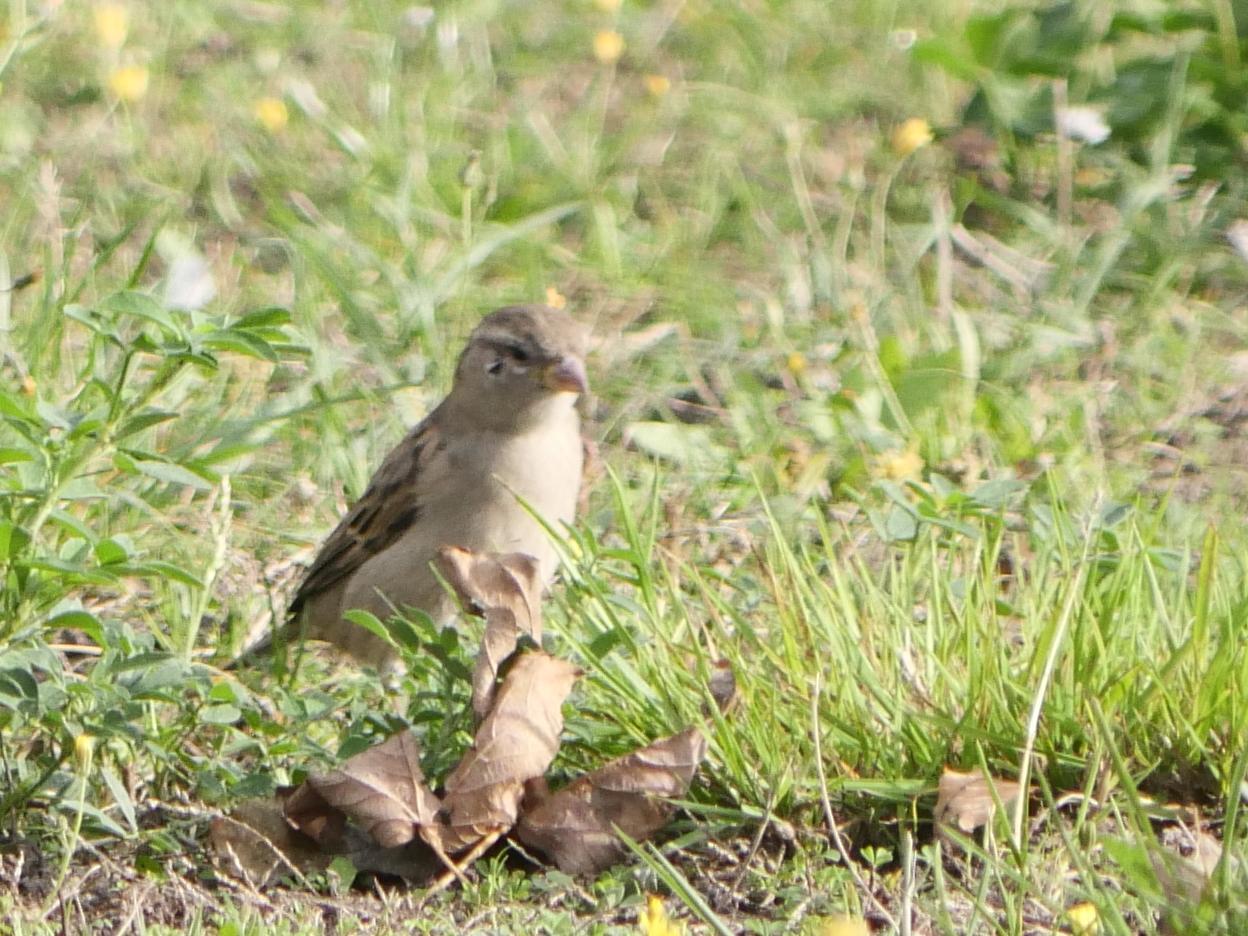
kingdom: Animalia
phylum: Chordata
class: Aves
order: Passeriformes
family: Passeridae
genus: Passer
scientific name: Passer domesticus
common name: House sparrow
